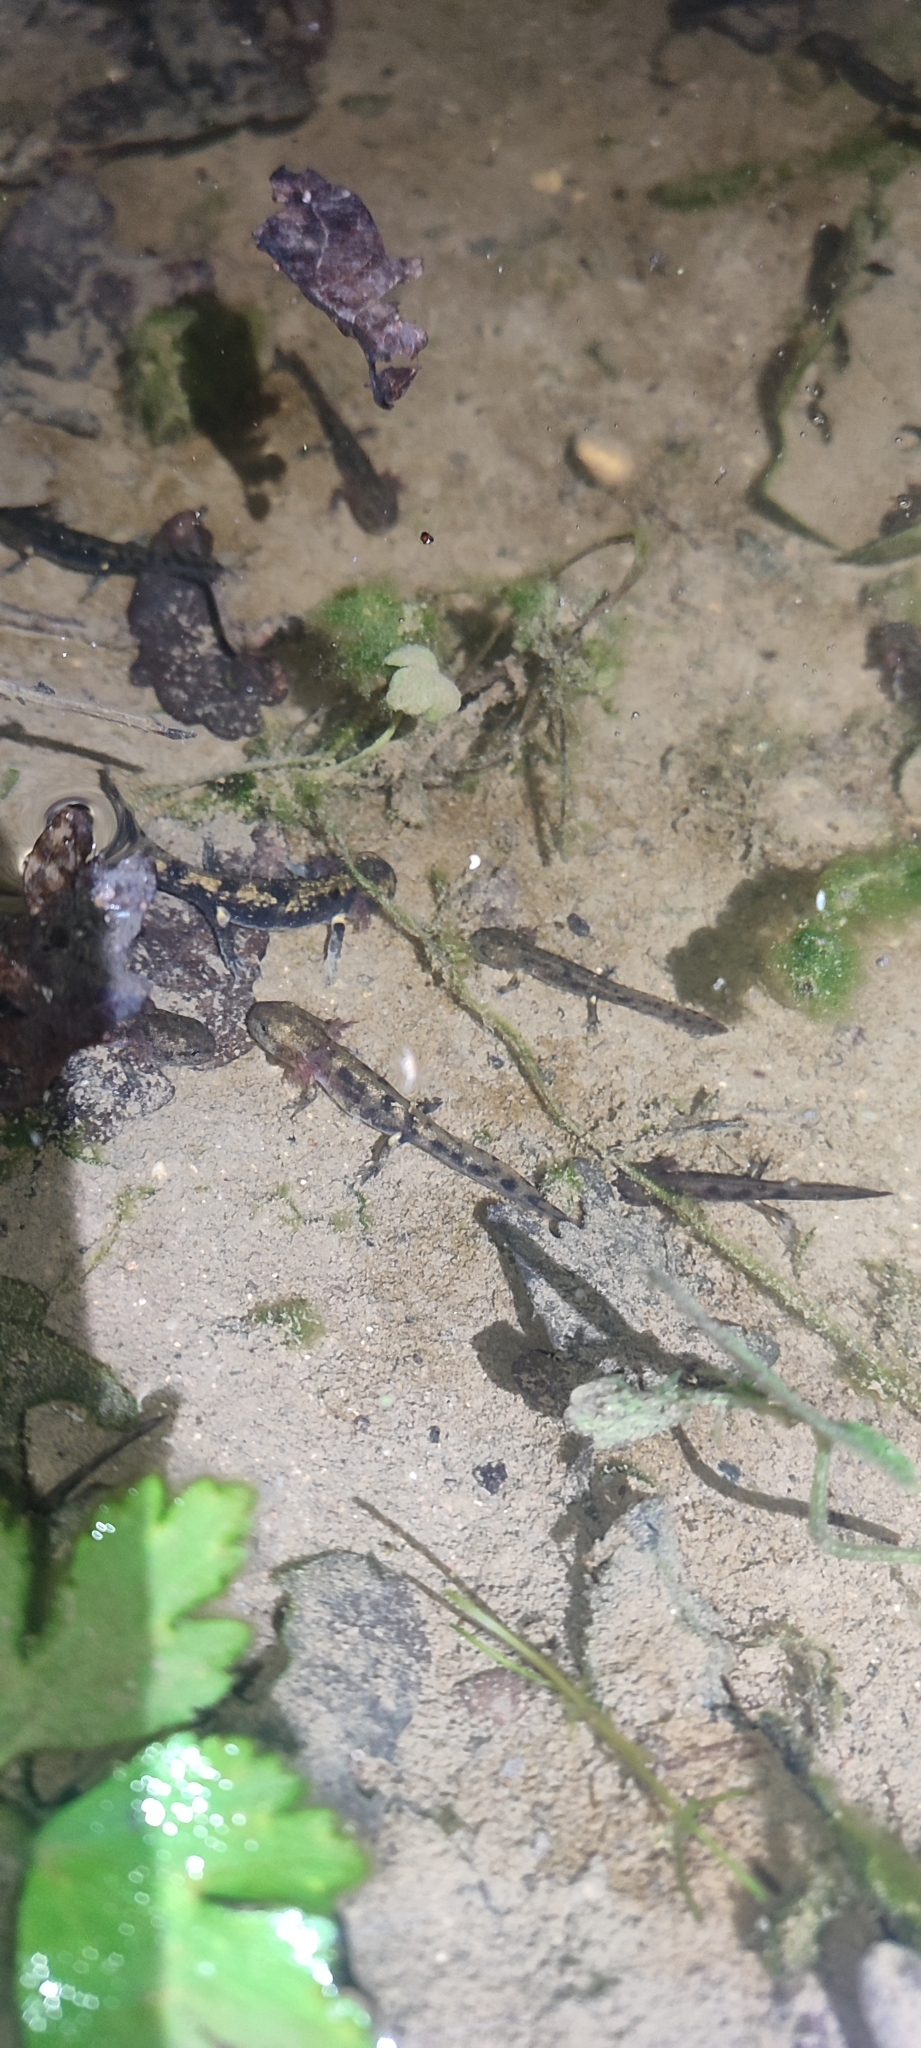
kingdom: Animalia
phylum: Chordata
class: Amphibia
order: Caudata
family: Salamandridae
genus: Salamandra
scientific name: Salamandra salamandra
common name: Fire salamander
